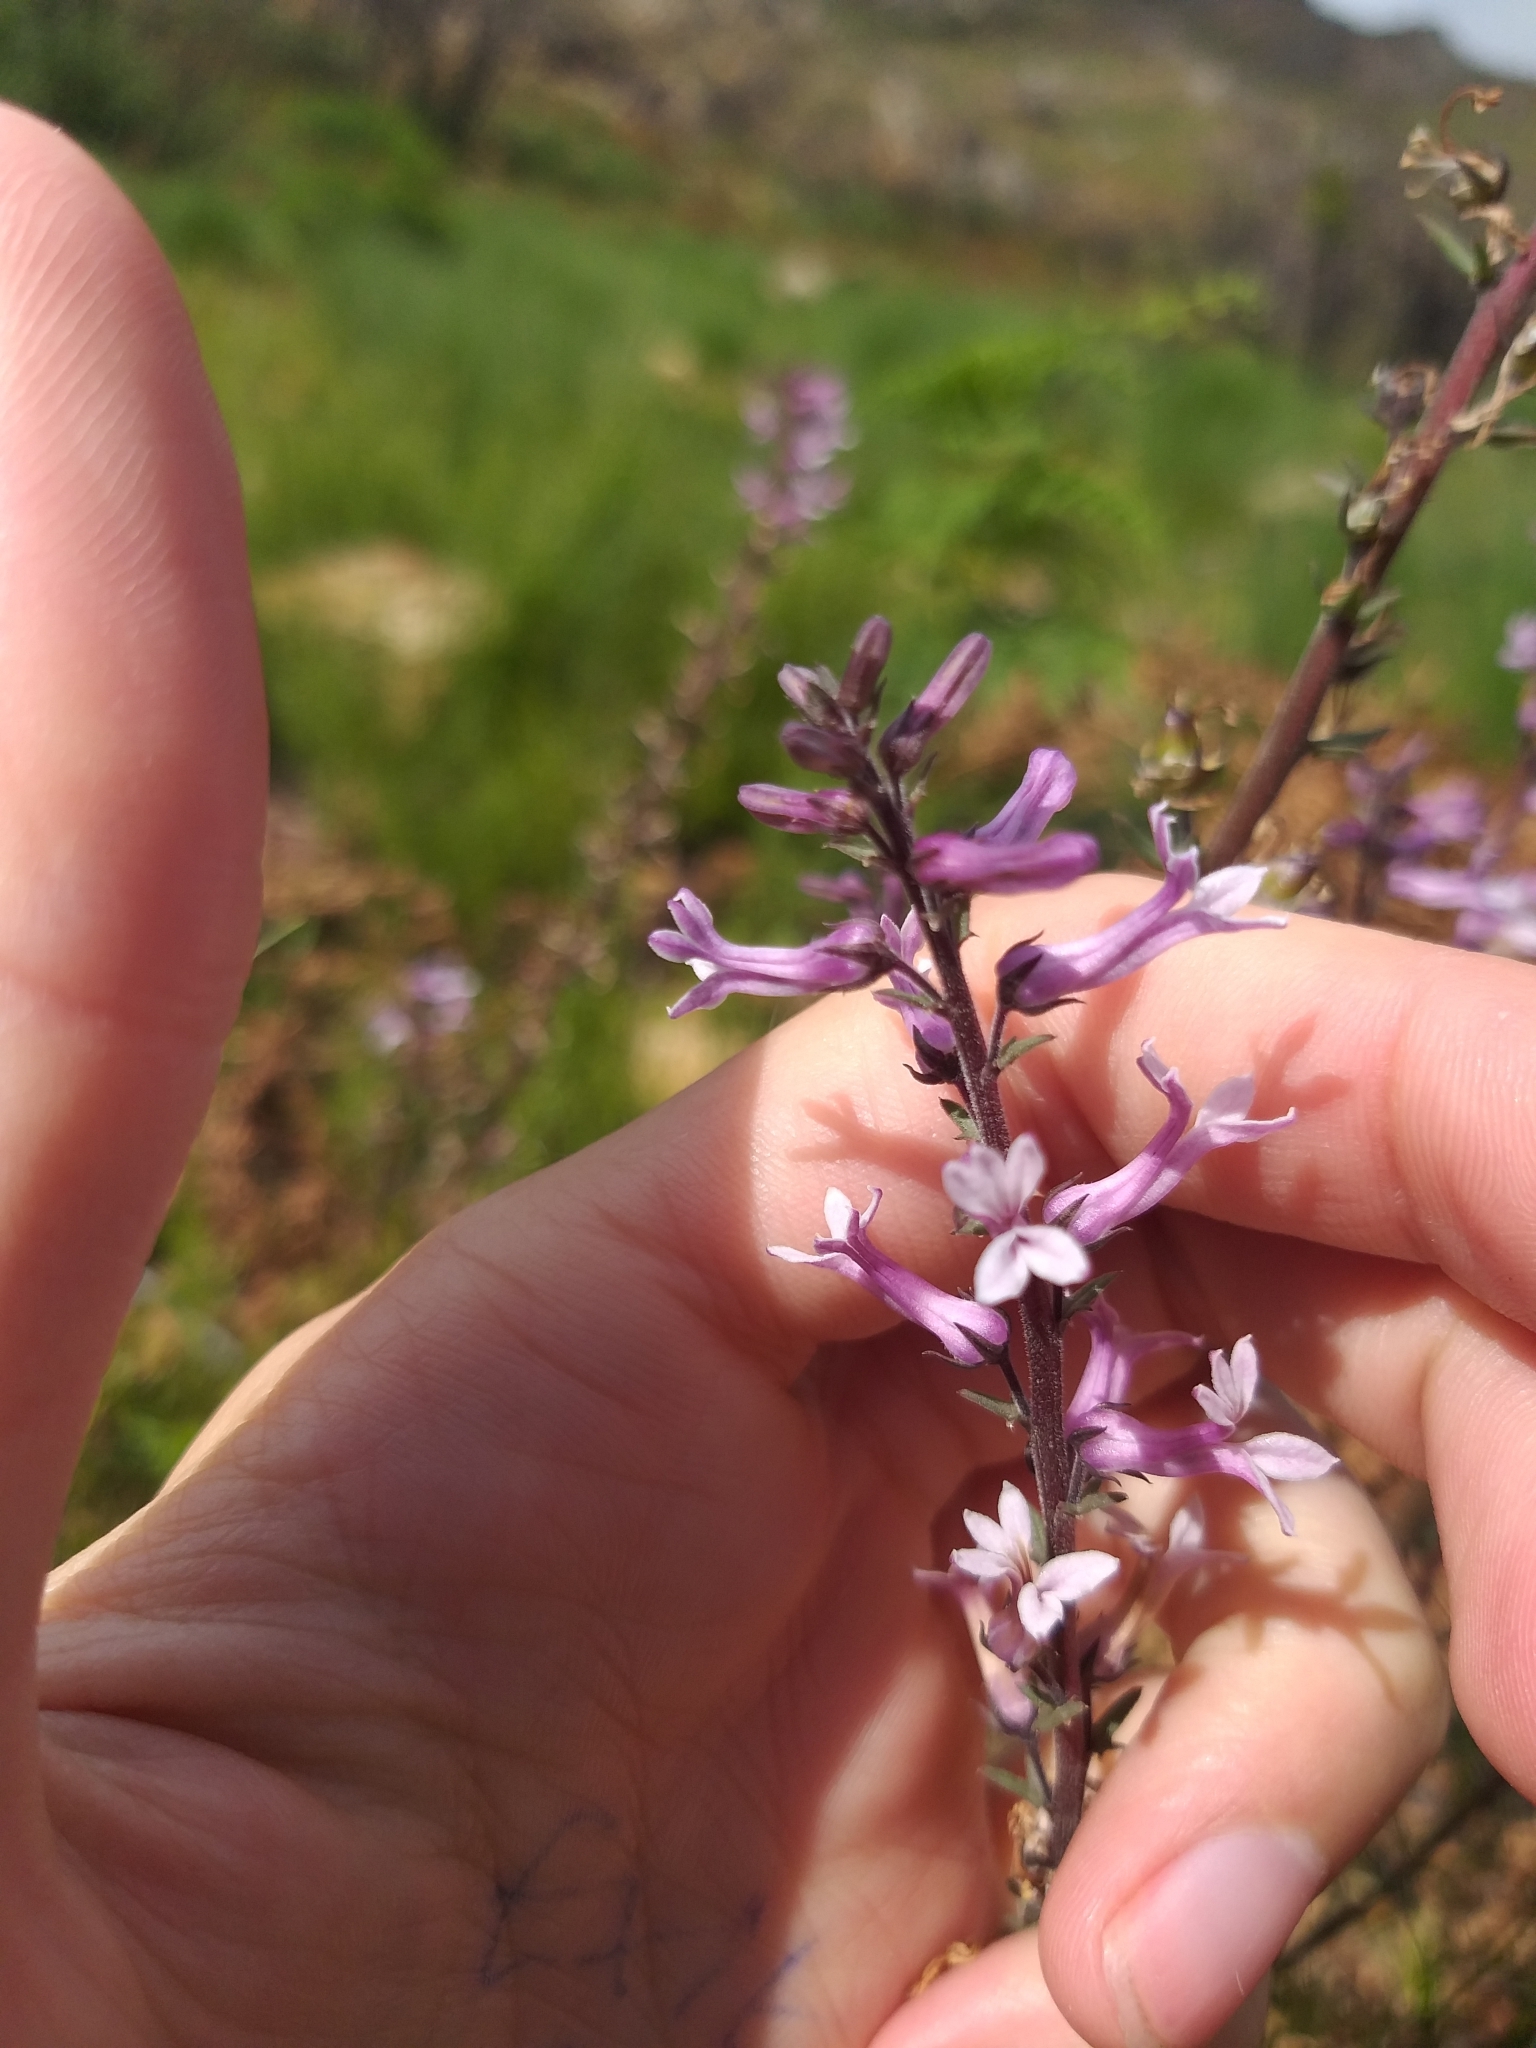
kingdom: Plantae
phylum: Tracheophyta
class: Magnoliopsida
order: Asterales
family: Campanulaceae
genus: Cyphia
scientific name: Cyphia bulbosa
